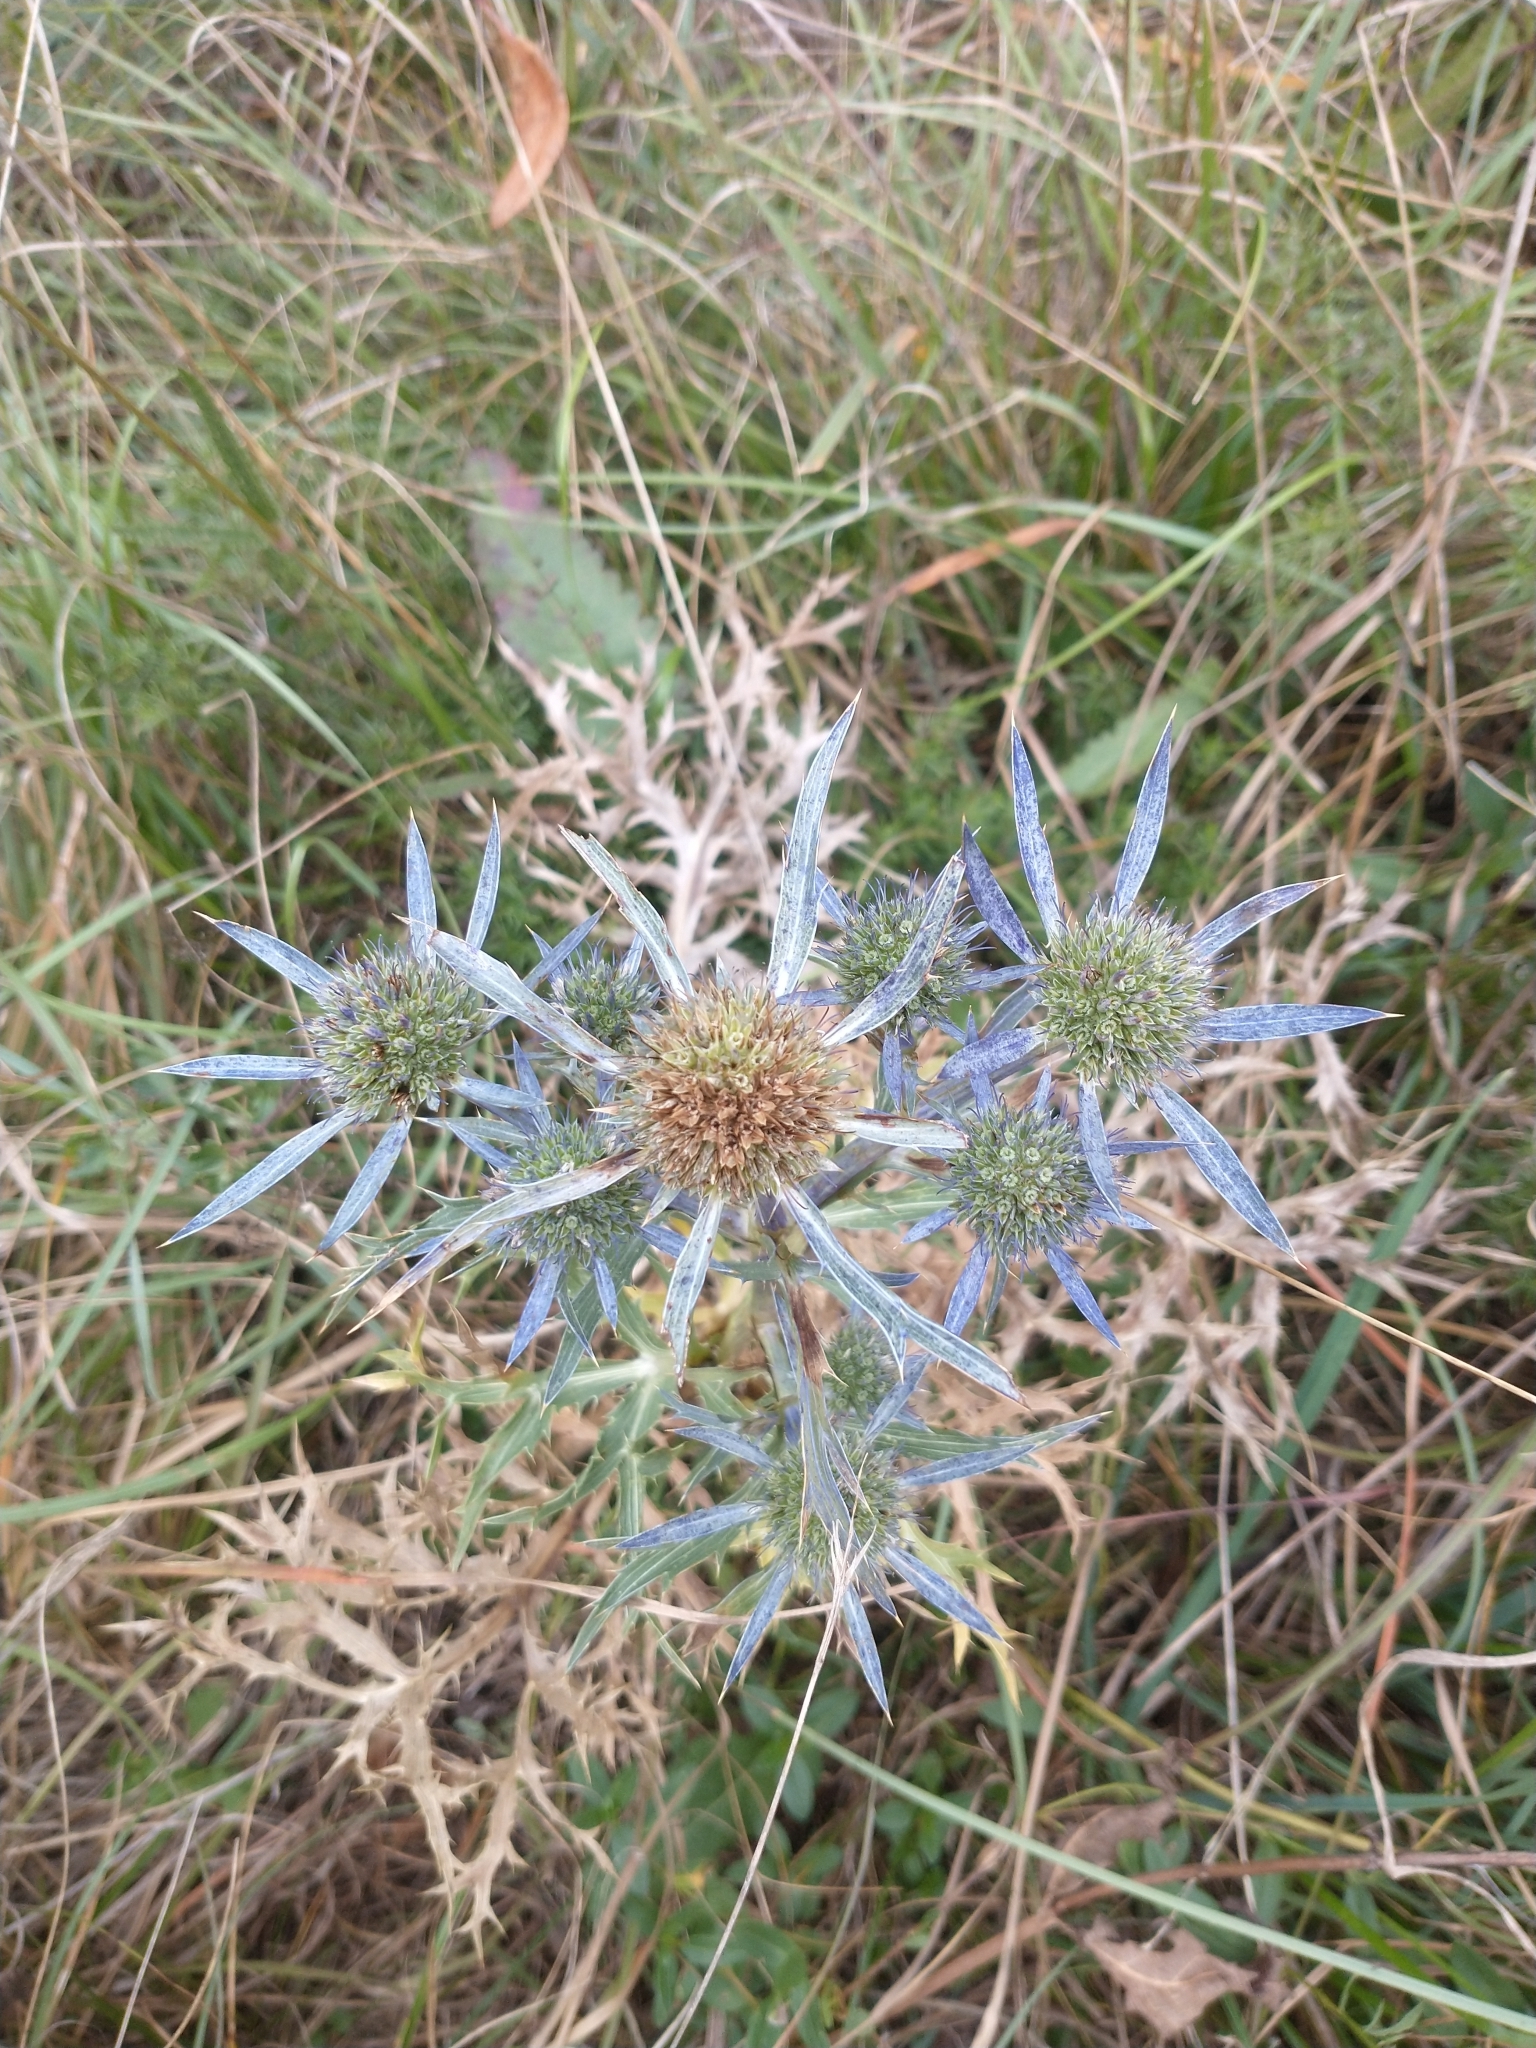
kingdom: Plantae
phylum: Tracheophyta
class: Magnoliopsida
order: Apiales
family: Apiaceae
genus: Eryngium
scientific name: Eryngium amethystinum
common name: Amethyst eryngo
